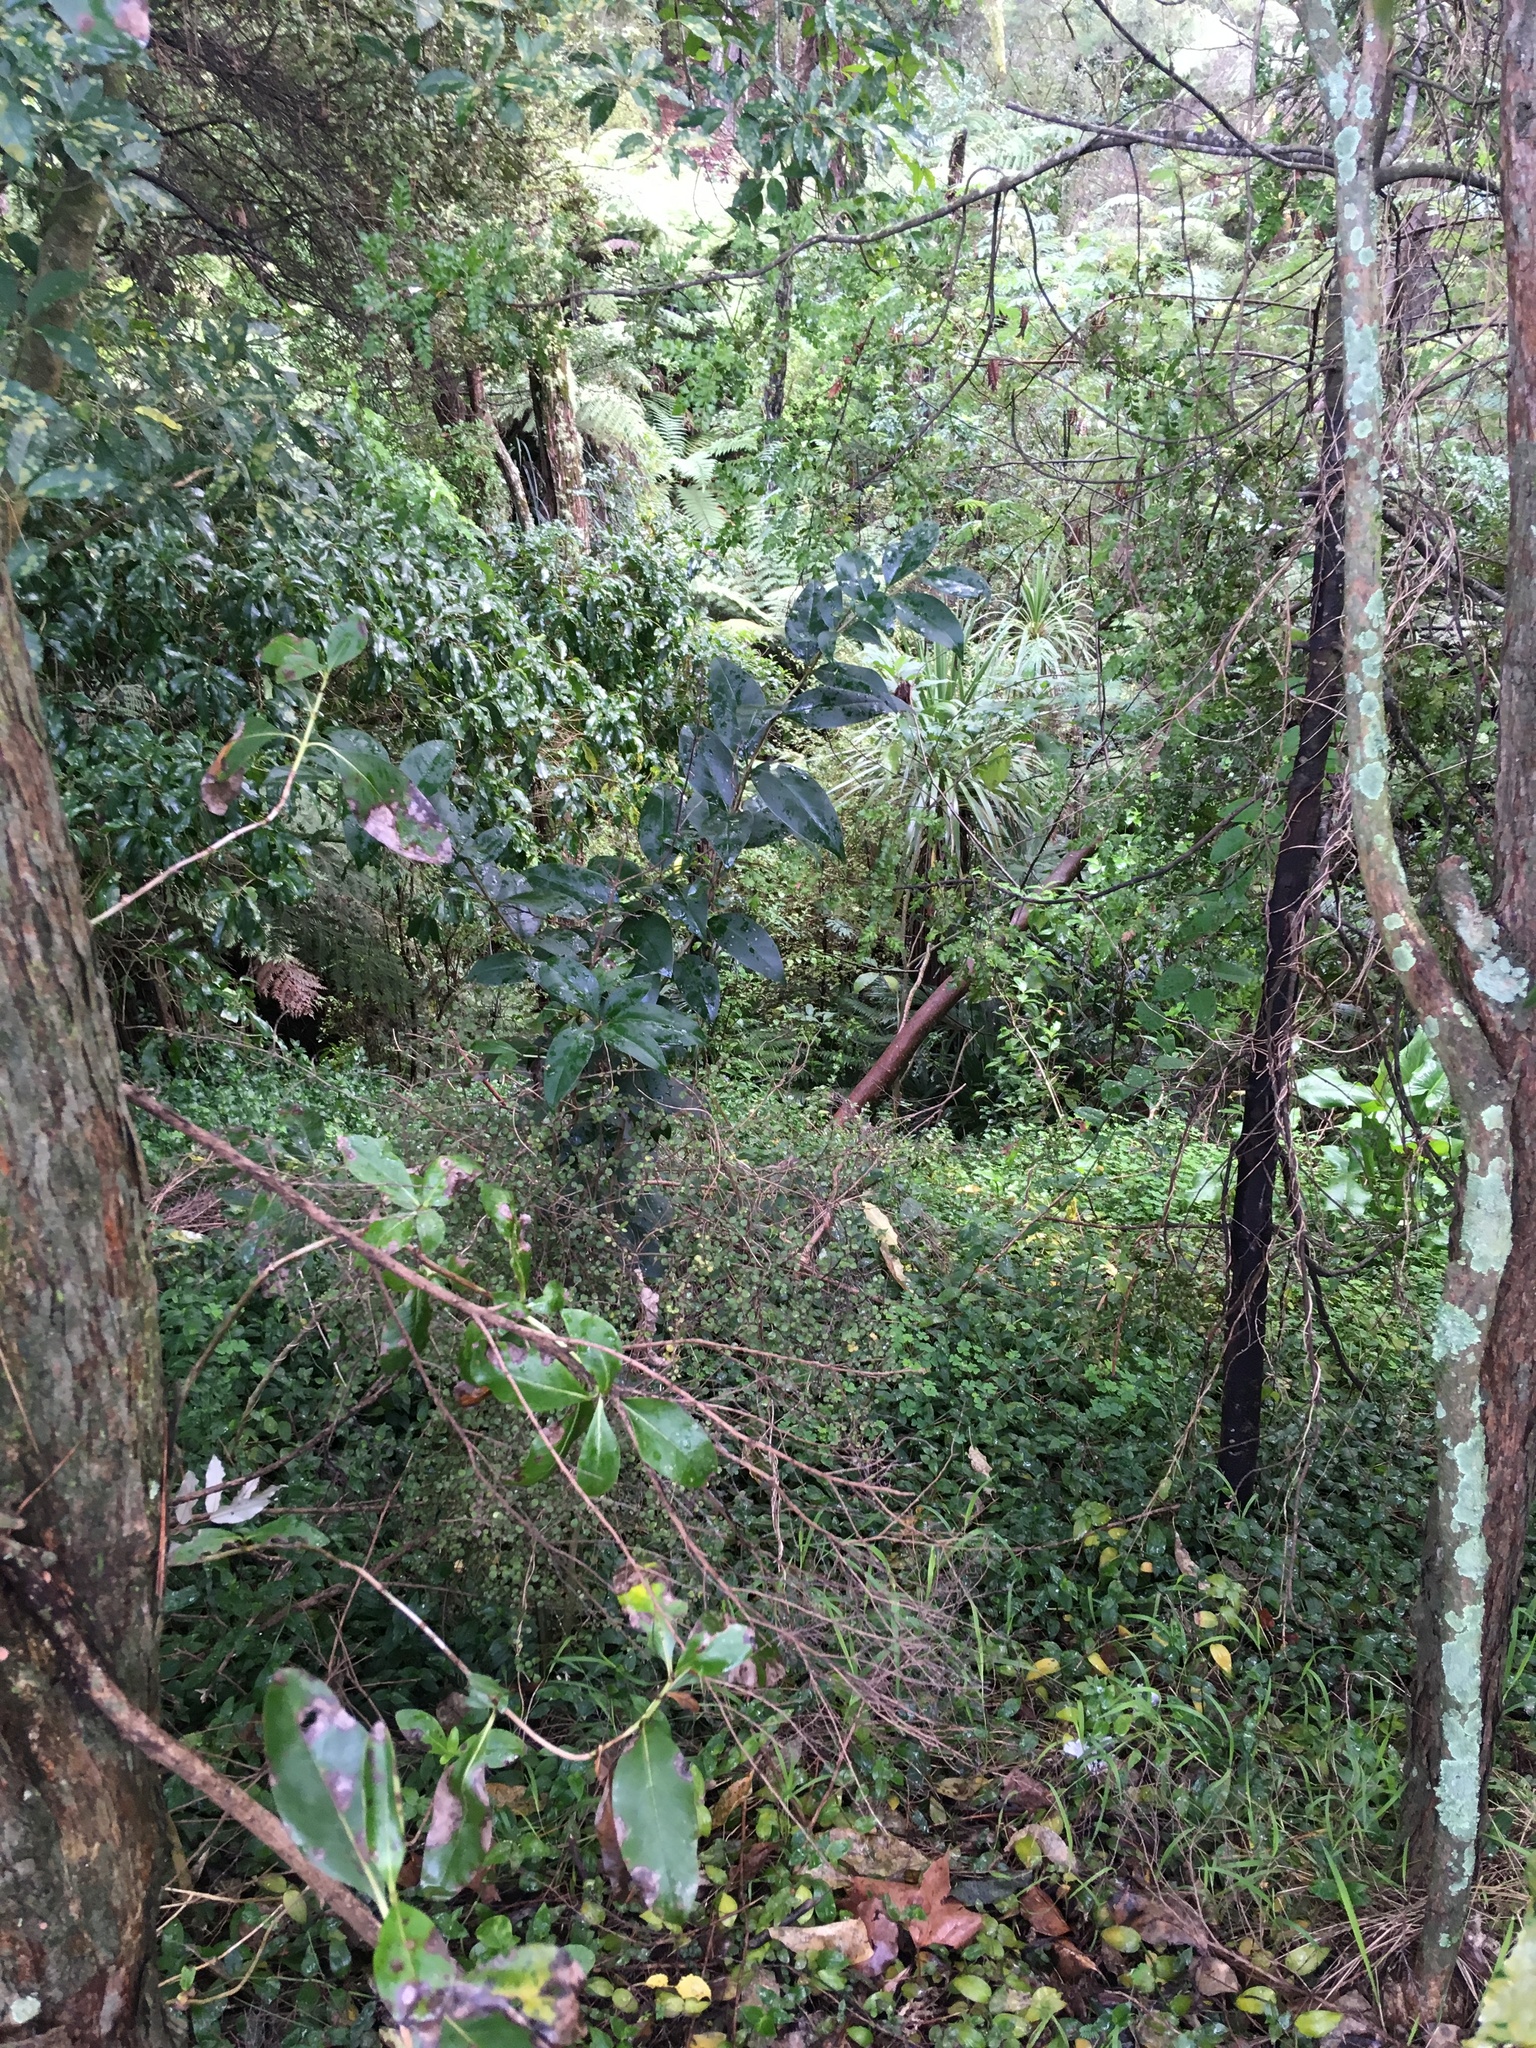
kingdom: Plantae
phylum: Tracheophyta
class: Magnoliopsida
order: Lamiales
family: Oleaceae
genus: Ligustrum
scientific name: Ligustrum lucidum
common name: Glossy privet
